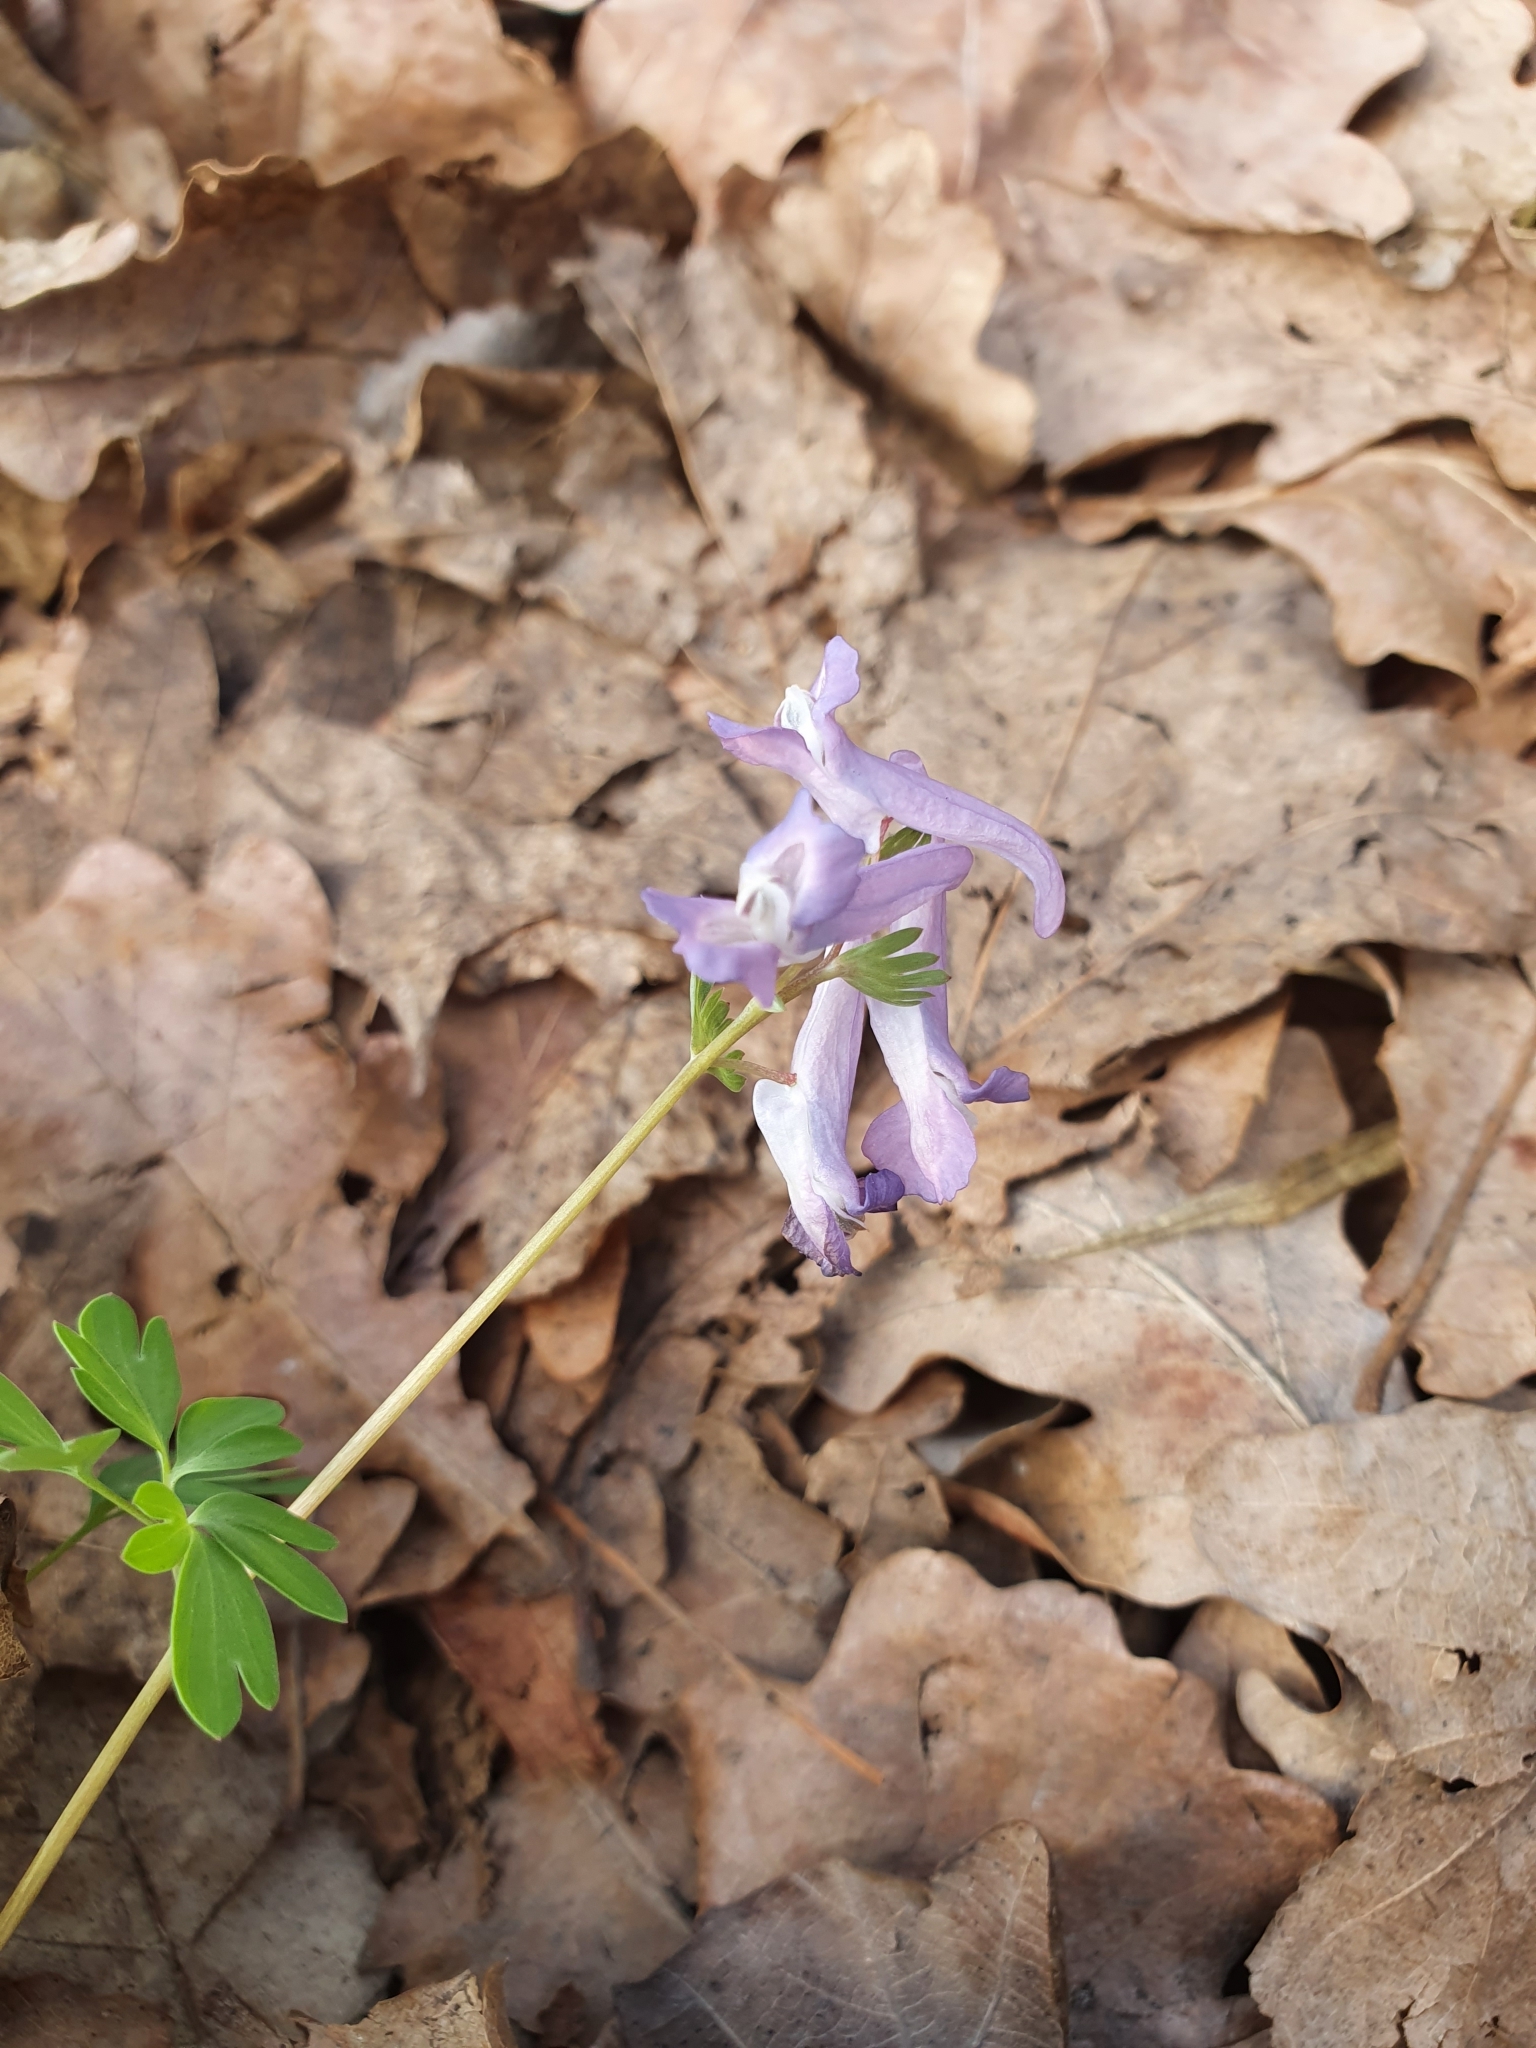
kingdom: Plantae
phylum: Tracheophyta
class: Magnoliopsida
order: Ranunculales
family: Papaveraceae
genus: Corydalis
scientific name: Corydalis solida
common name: Bird-in-a-bush
